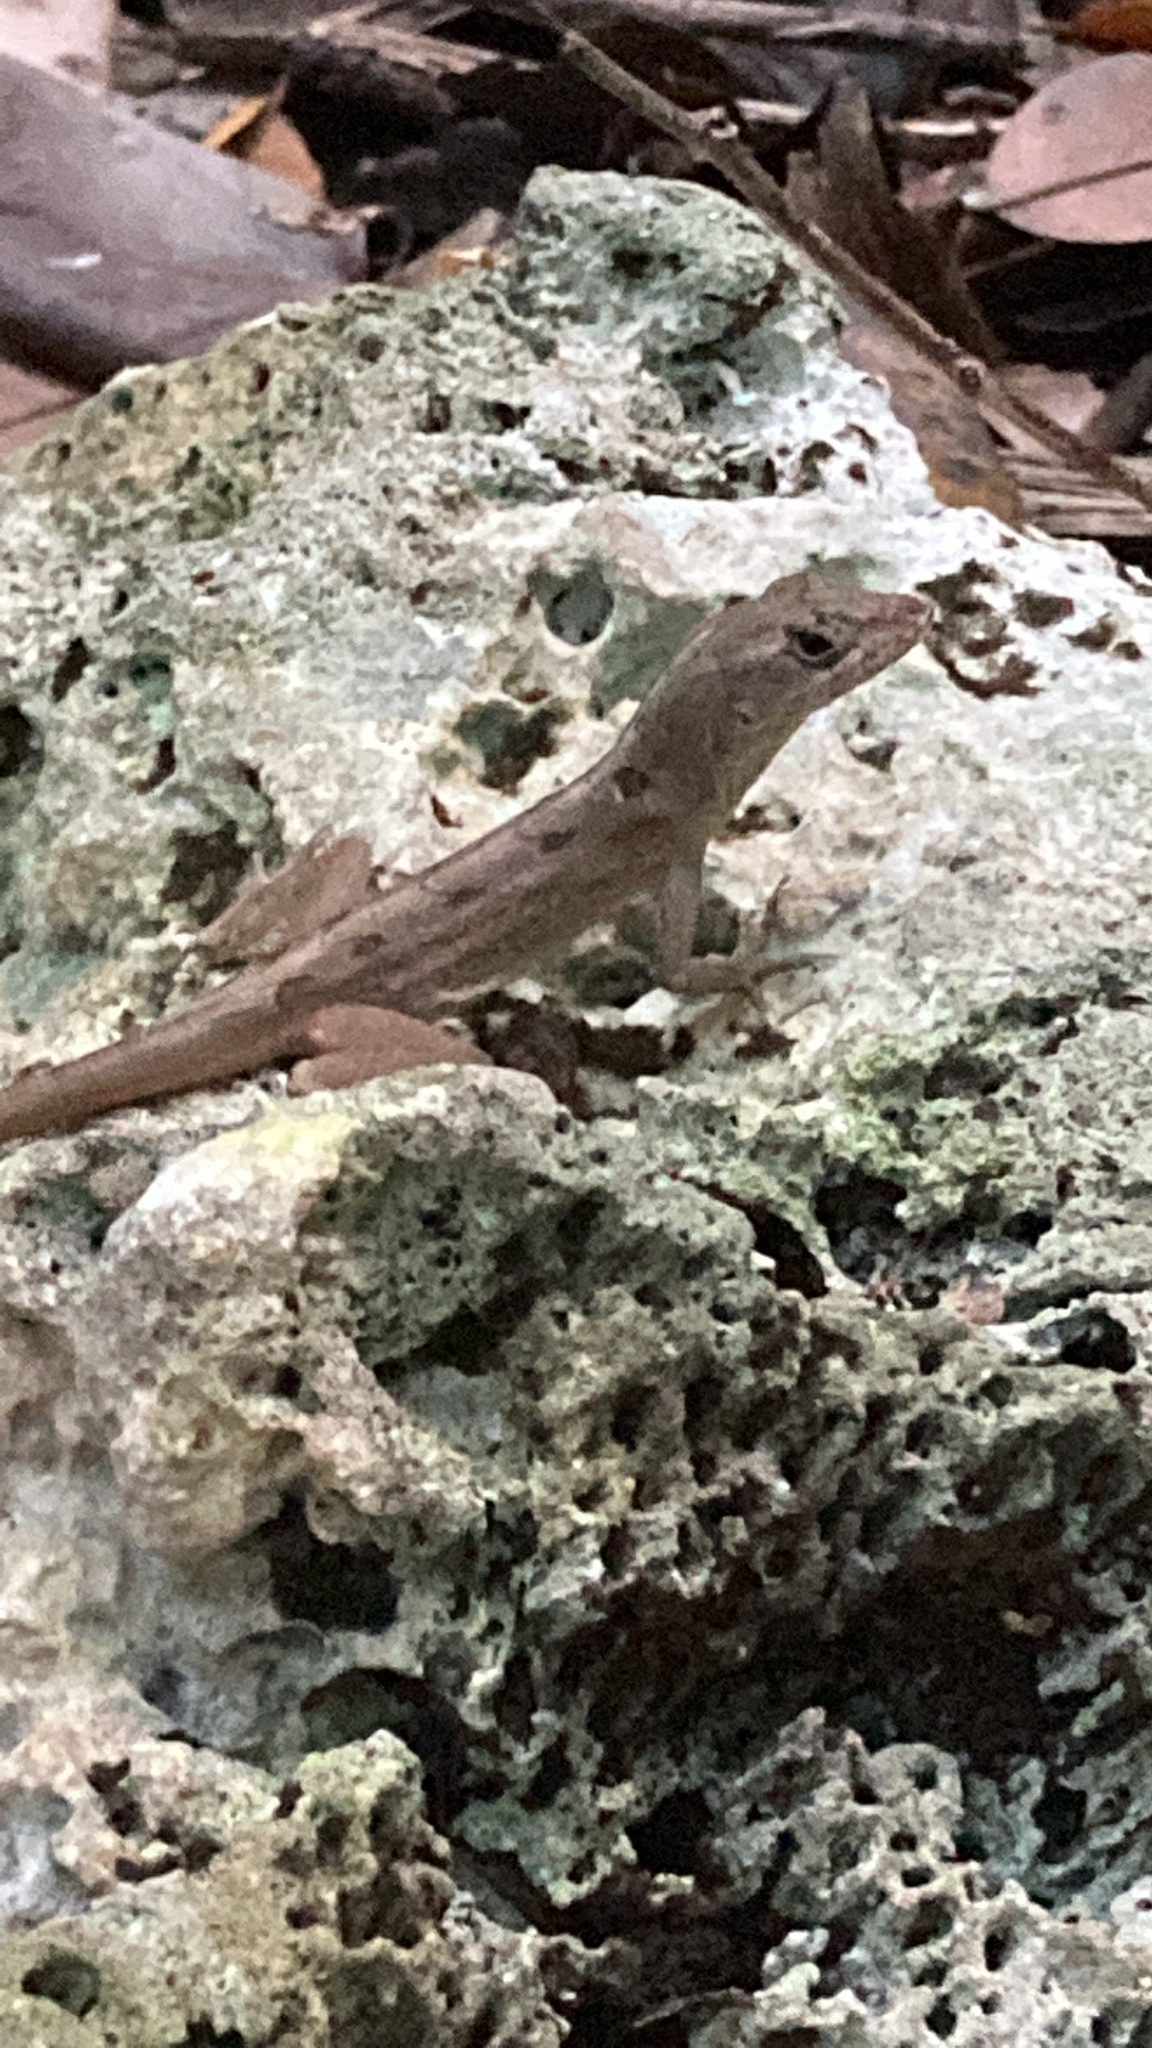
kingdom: Animalia
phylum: Chordata
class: Squamata
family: Dactyloidae
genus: Anolis
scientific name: Anolis sagrei
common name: Brown anole
